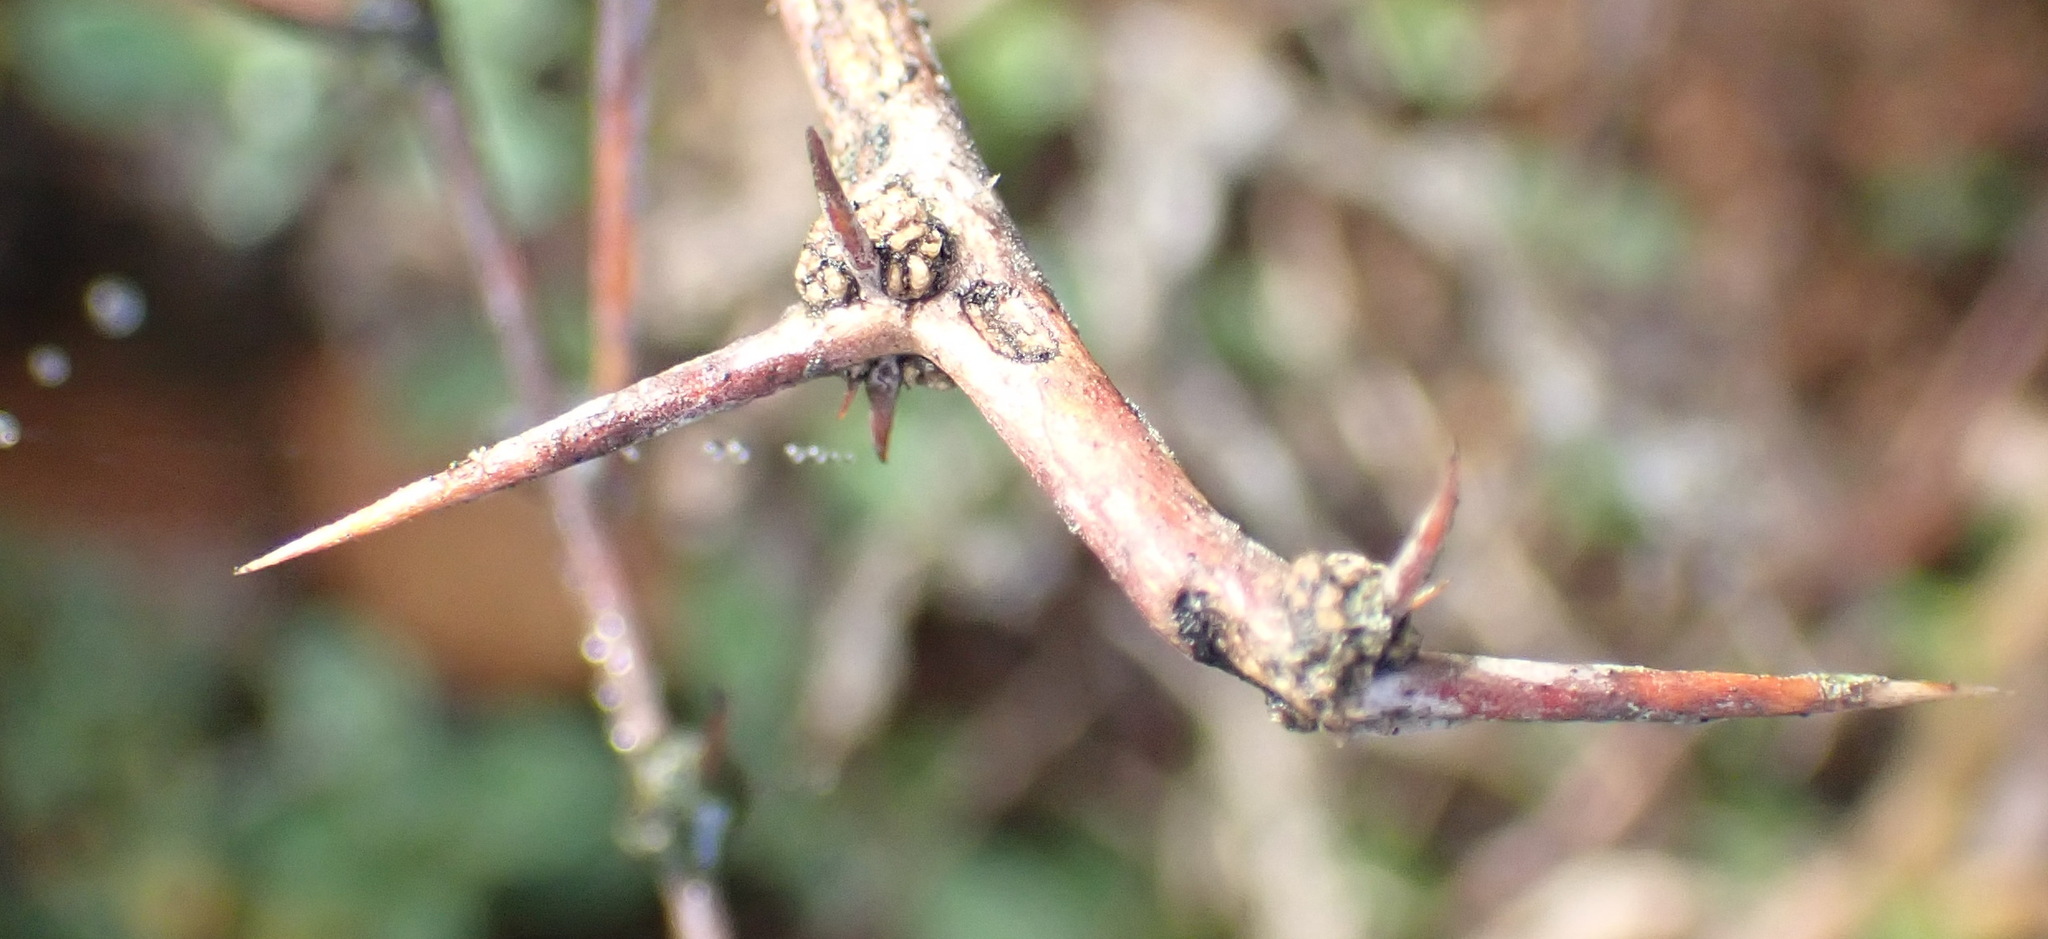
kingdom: Plantae
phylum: Tracheophyta
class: Liliopsida
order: Asparagales
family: Asparagaceae
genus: Asparagus
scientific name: Asparagus capensis
